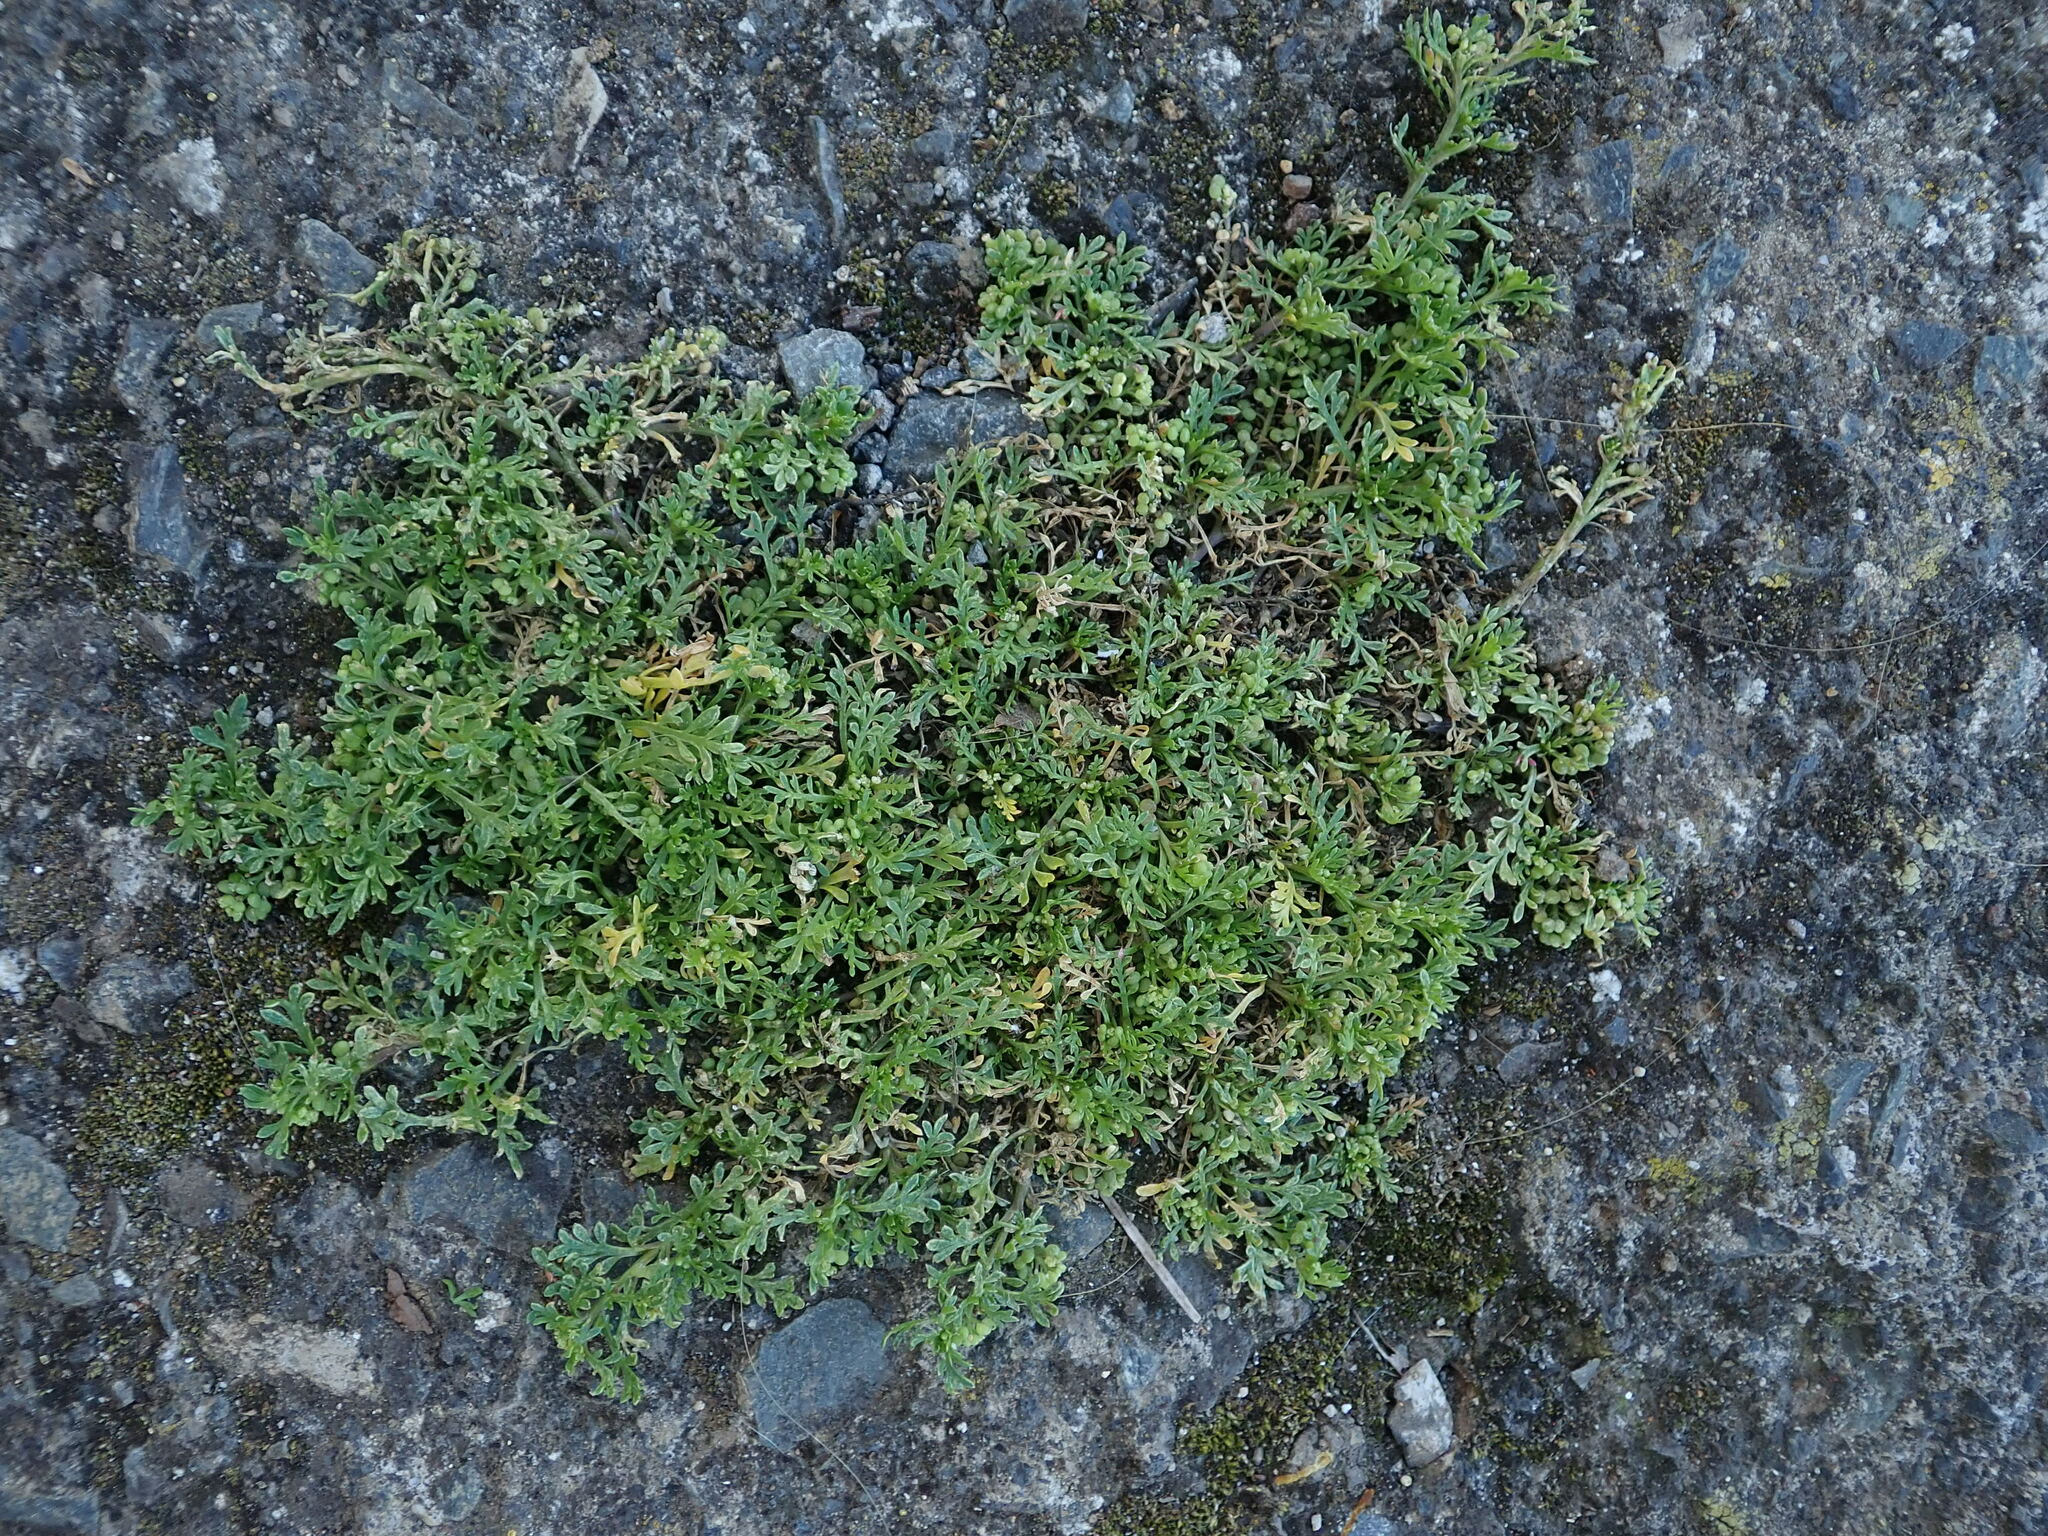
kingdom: Plantae
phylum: Tracheophyta
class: Magnoliopsida
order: Brassicales
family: Brassicaceae
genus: Lepidium
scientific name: Lepidium didymum
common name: Lesser swinecress
